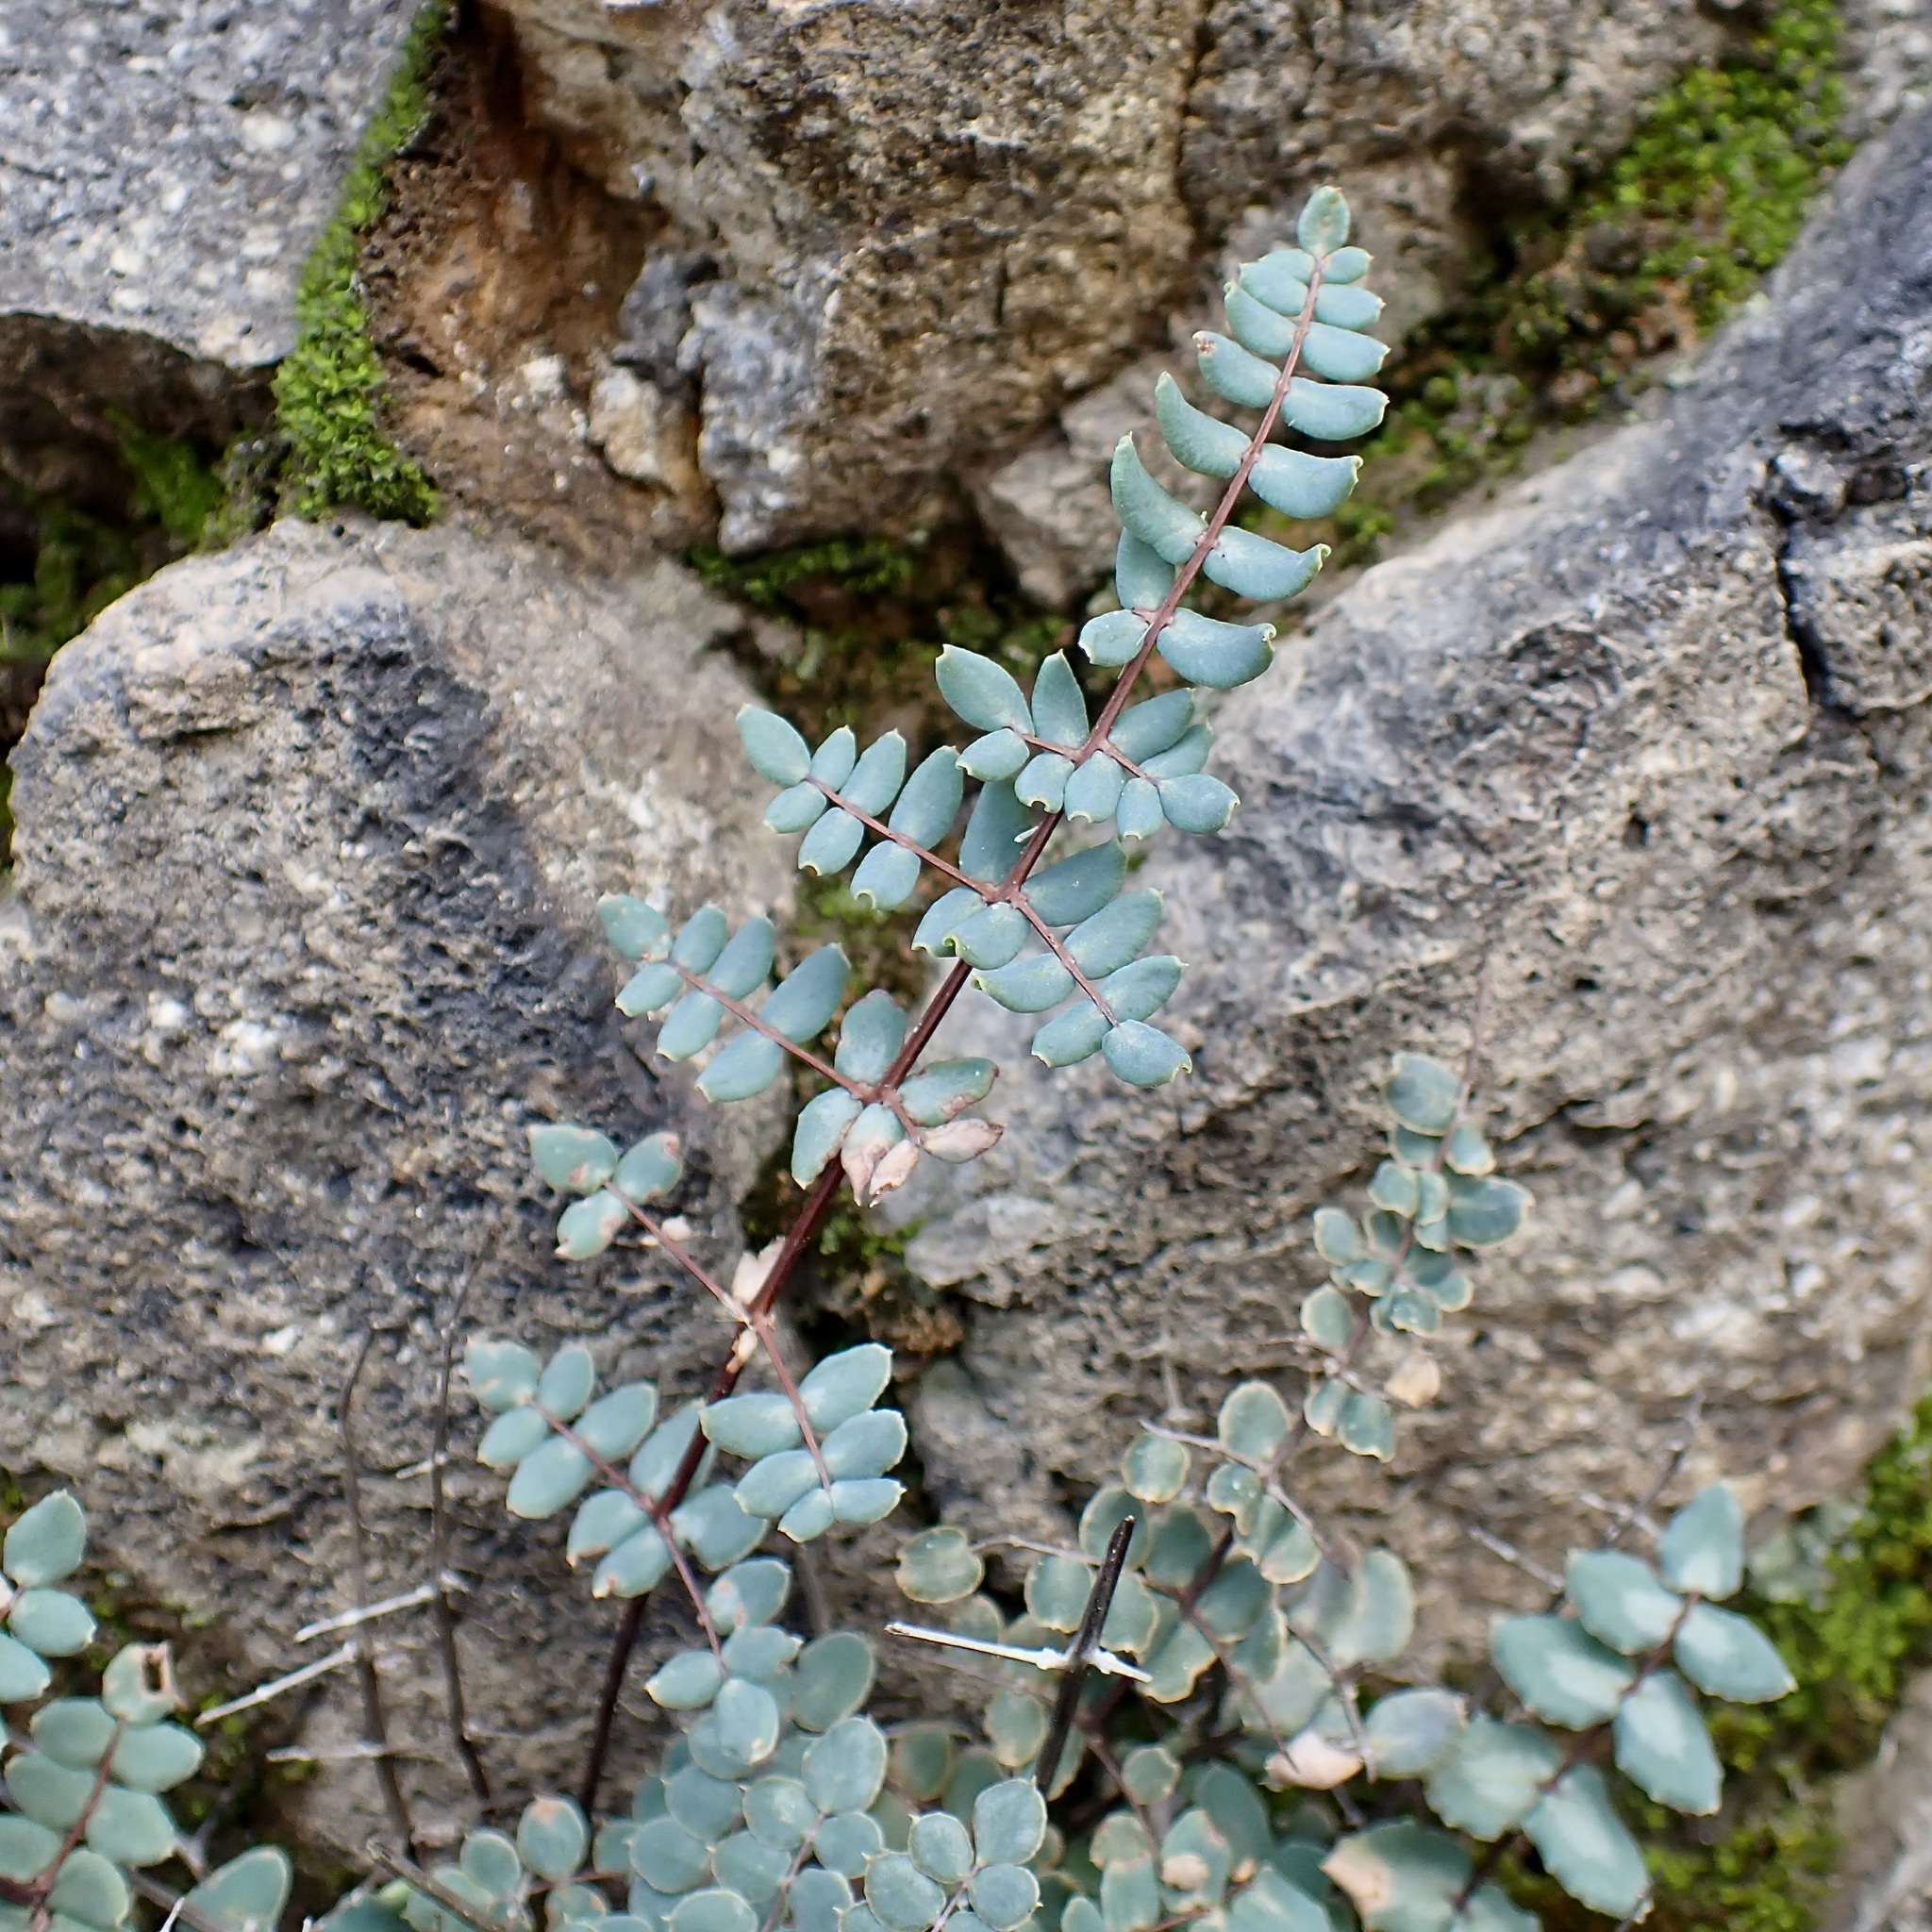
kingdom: Plantae
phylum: Tracheophyta
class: Polypodiopsida
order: Polypodiales
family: Pteridaceae
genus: Pellaea
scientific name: Pellaea truncata
